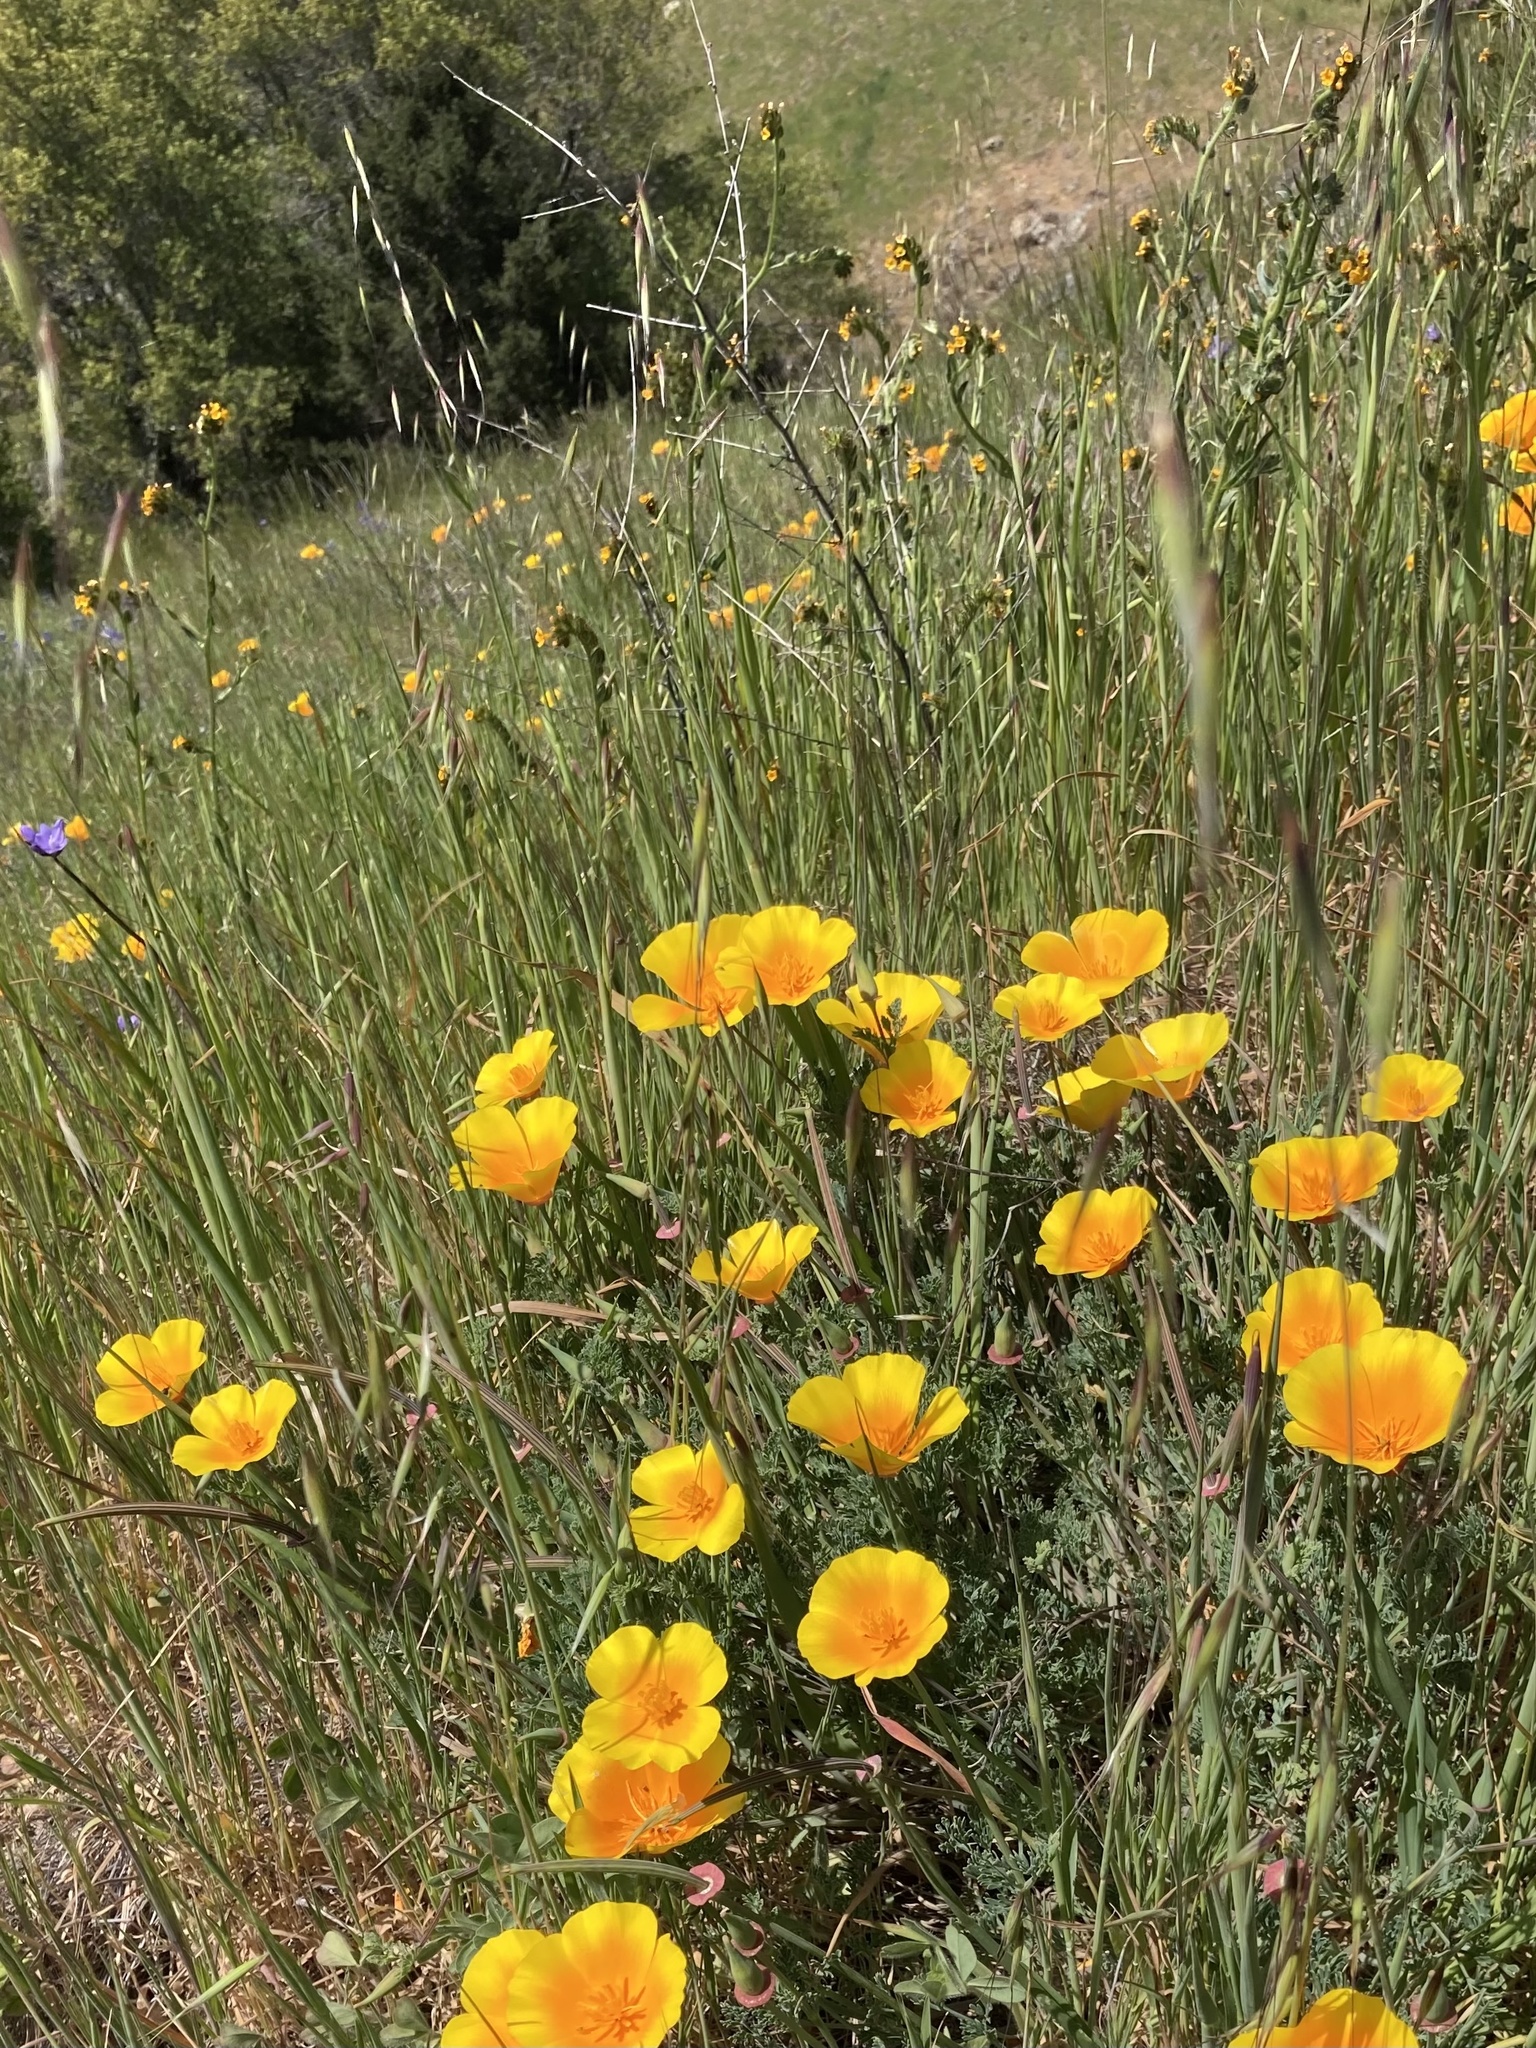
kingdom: Plantae
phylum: Tracheophyta
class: Magnoliopsida
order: Ranunculales
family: Papaveraceae
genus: Eschscholzia
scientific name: Eschscholzia californica
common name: California poppy
